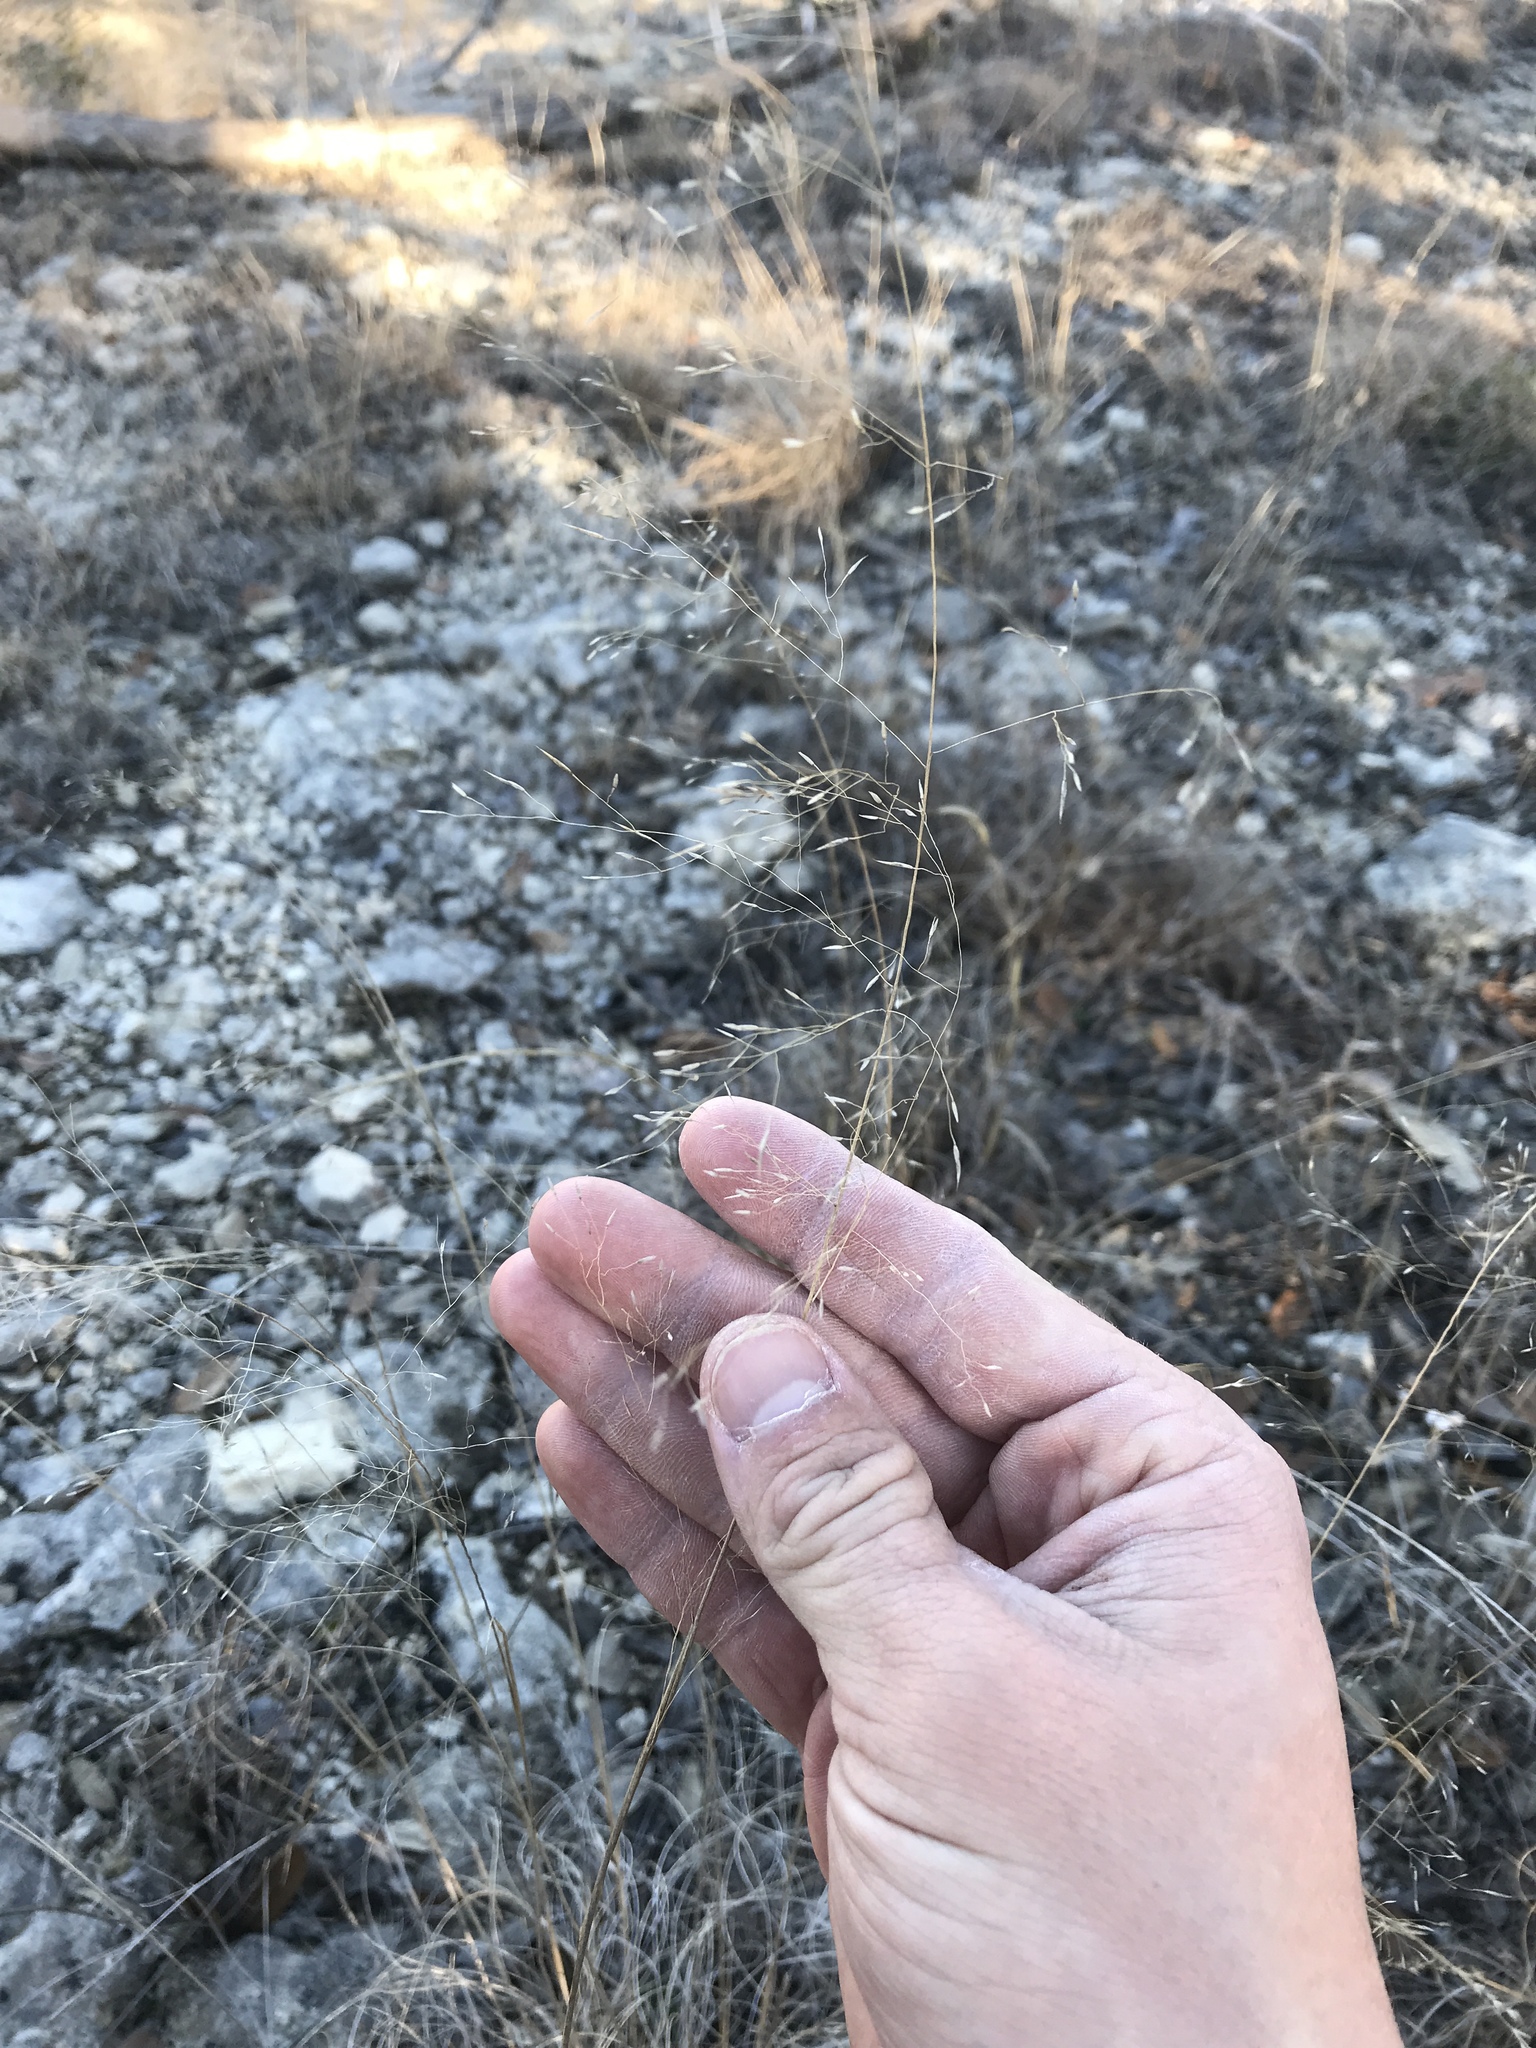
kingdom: Plantae
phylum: Tracheophyta
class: Liliopsida
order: Poales
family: Poaceae
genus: Muhlenbergia
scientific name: Muhlenbergia reverchonii
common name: Seep muhly
